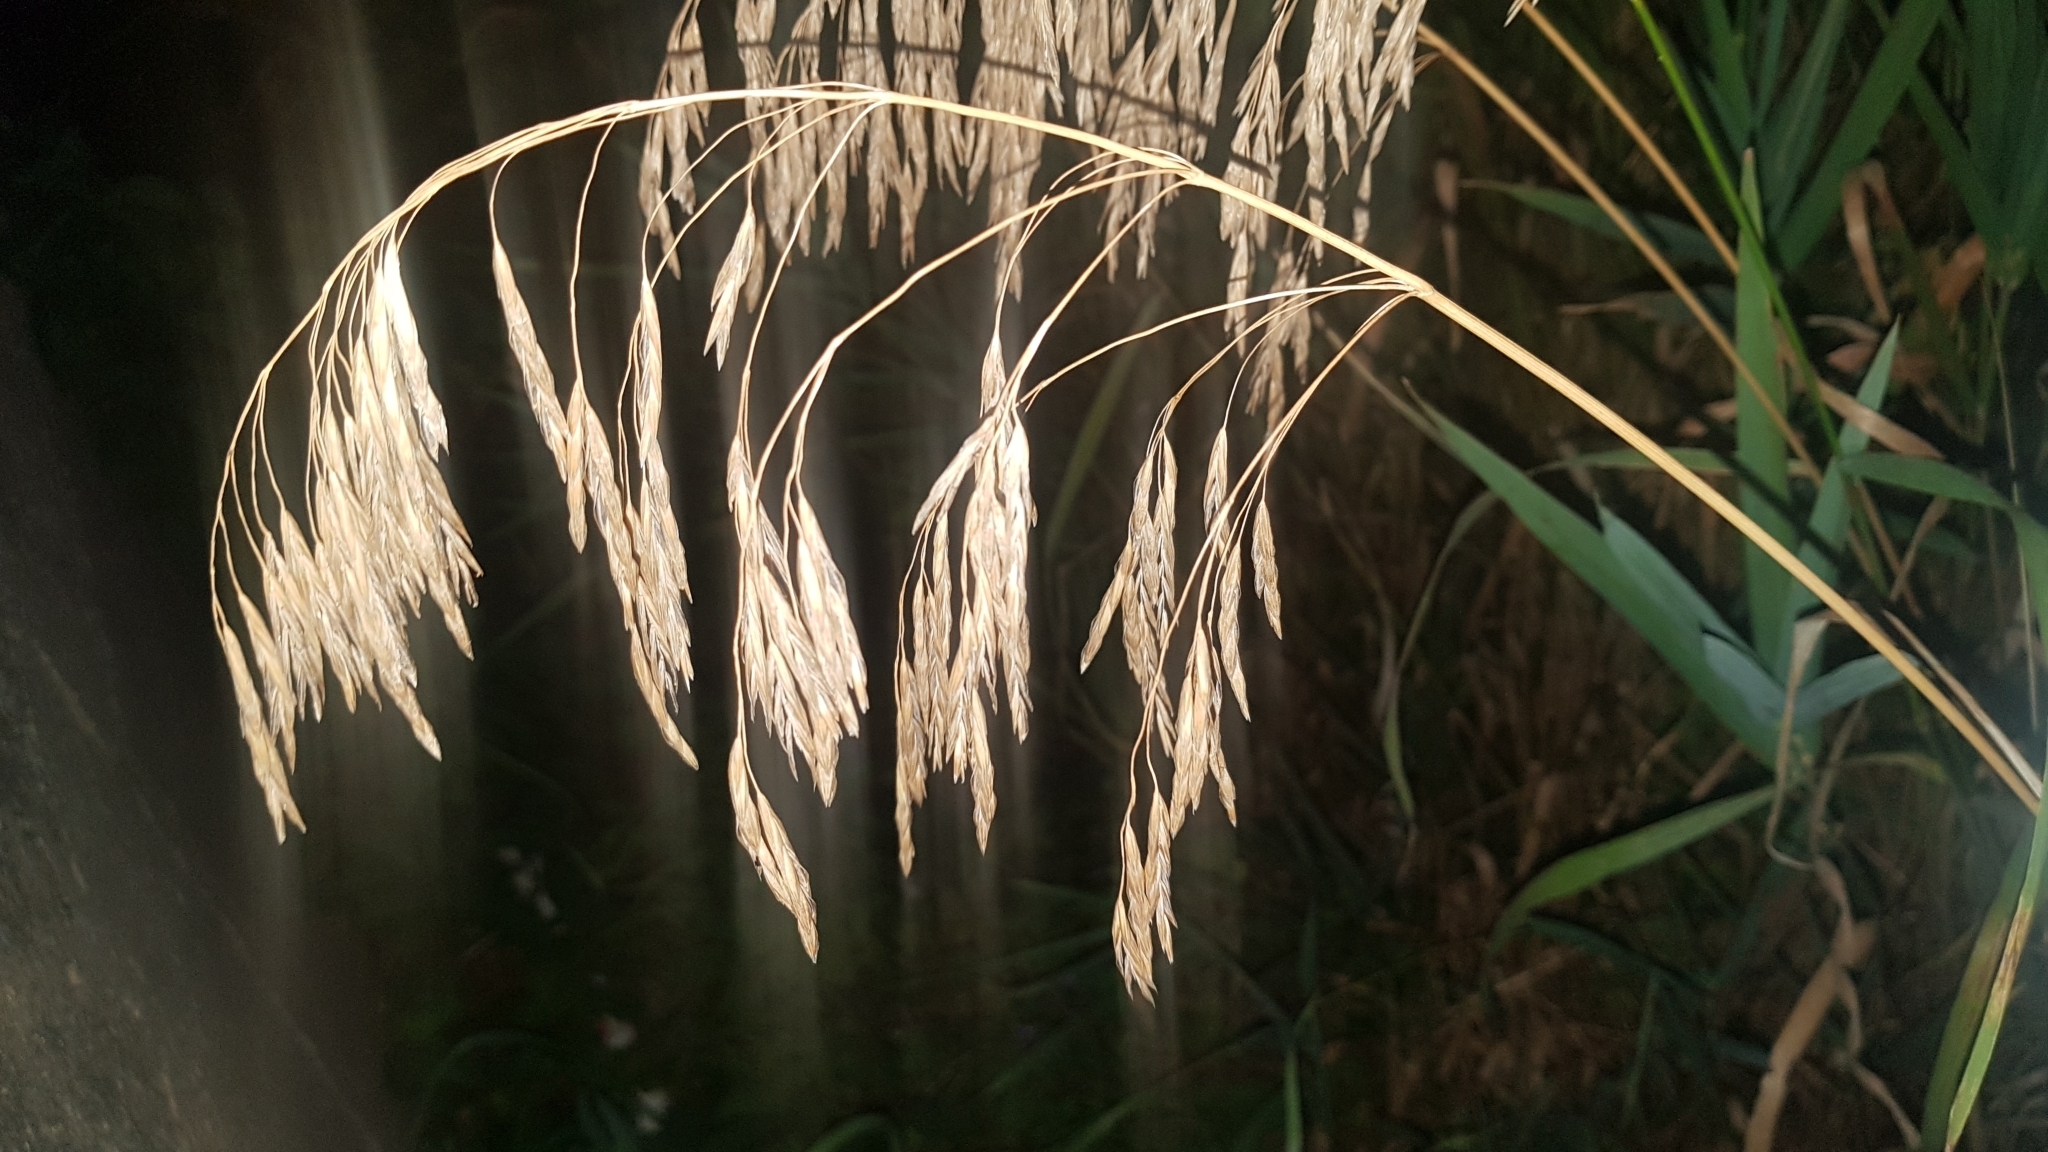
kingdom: Plantae
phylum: Tracheophyta
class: Liliopsida
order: Poales
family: Poaceae
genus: Bromus
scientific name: Bromus inermis
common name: Smooth brome
